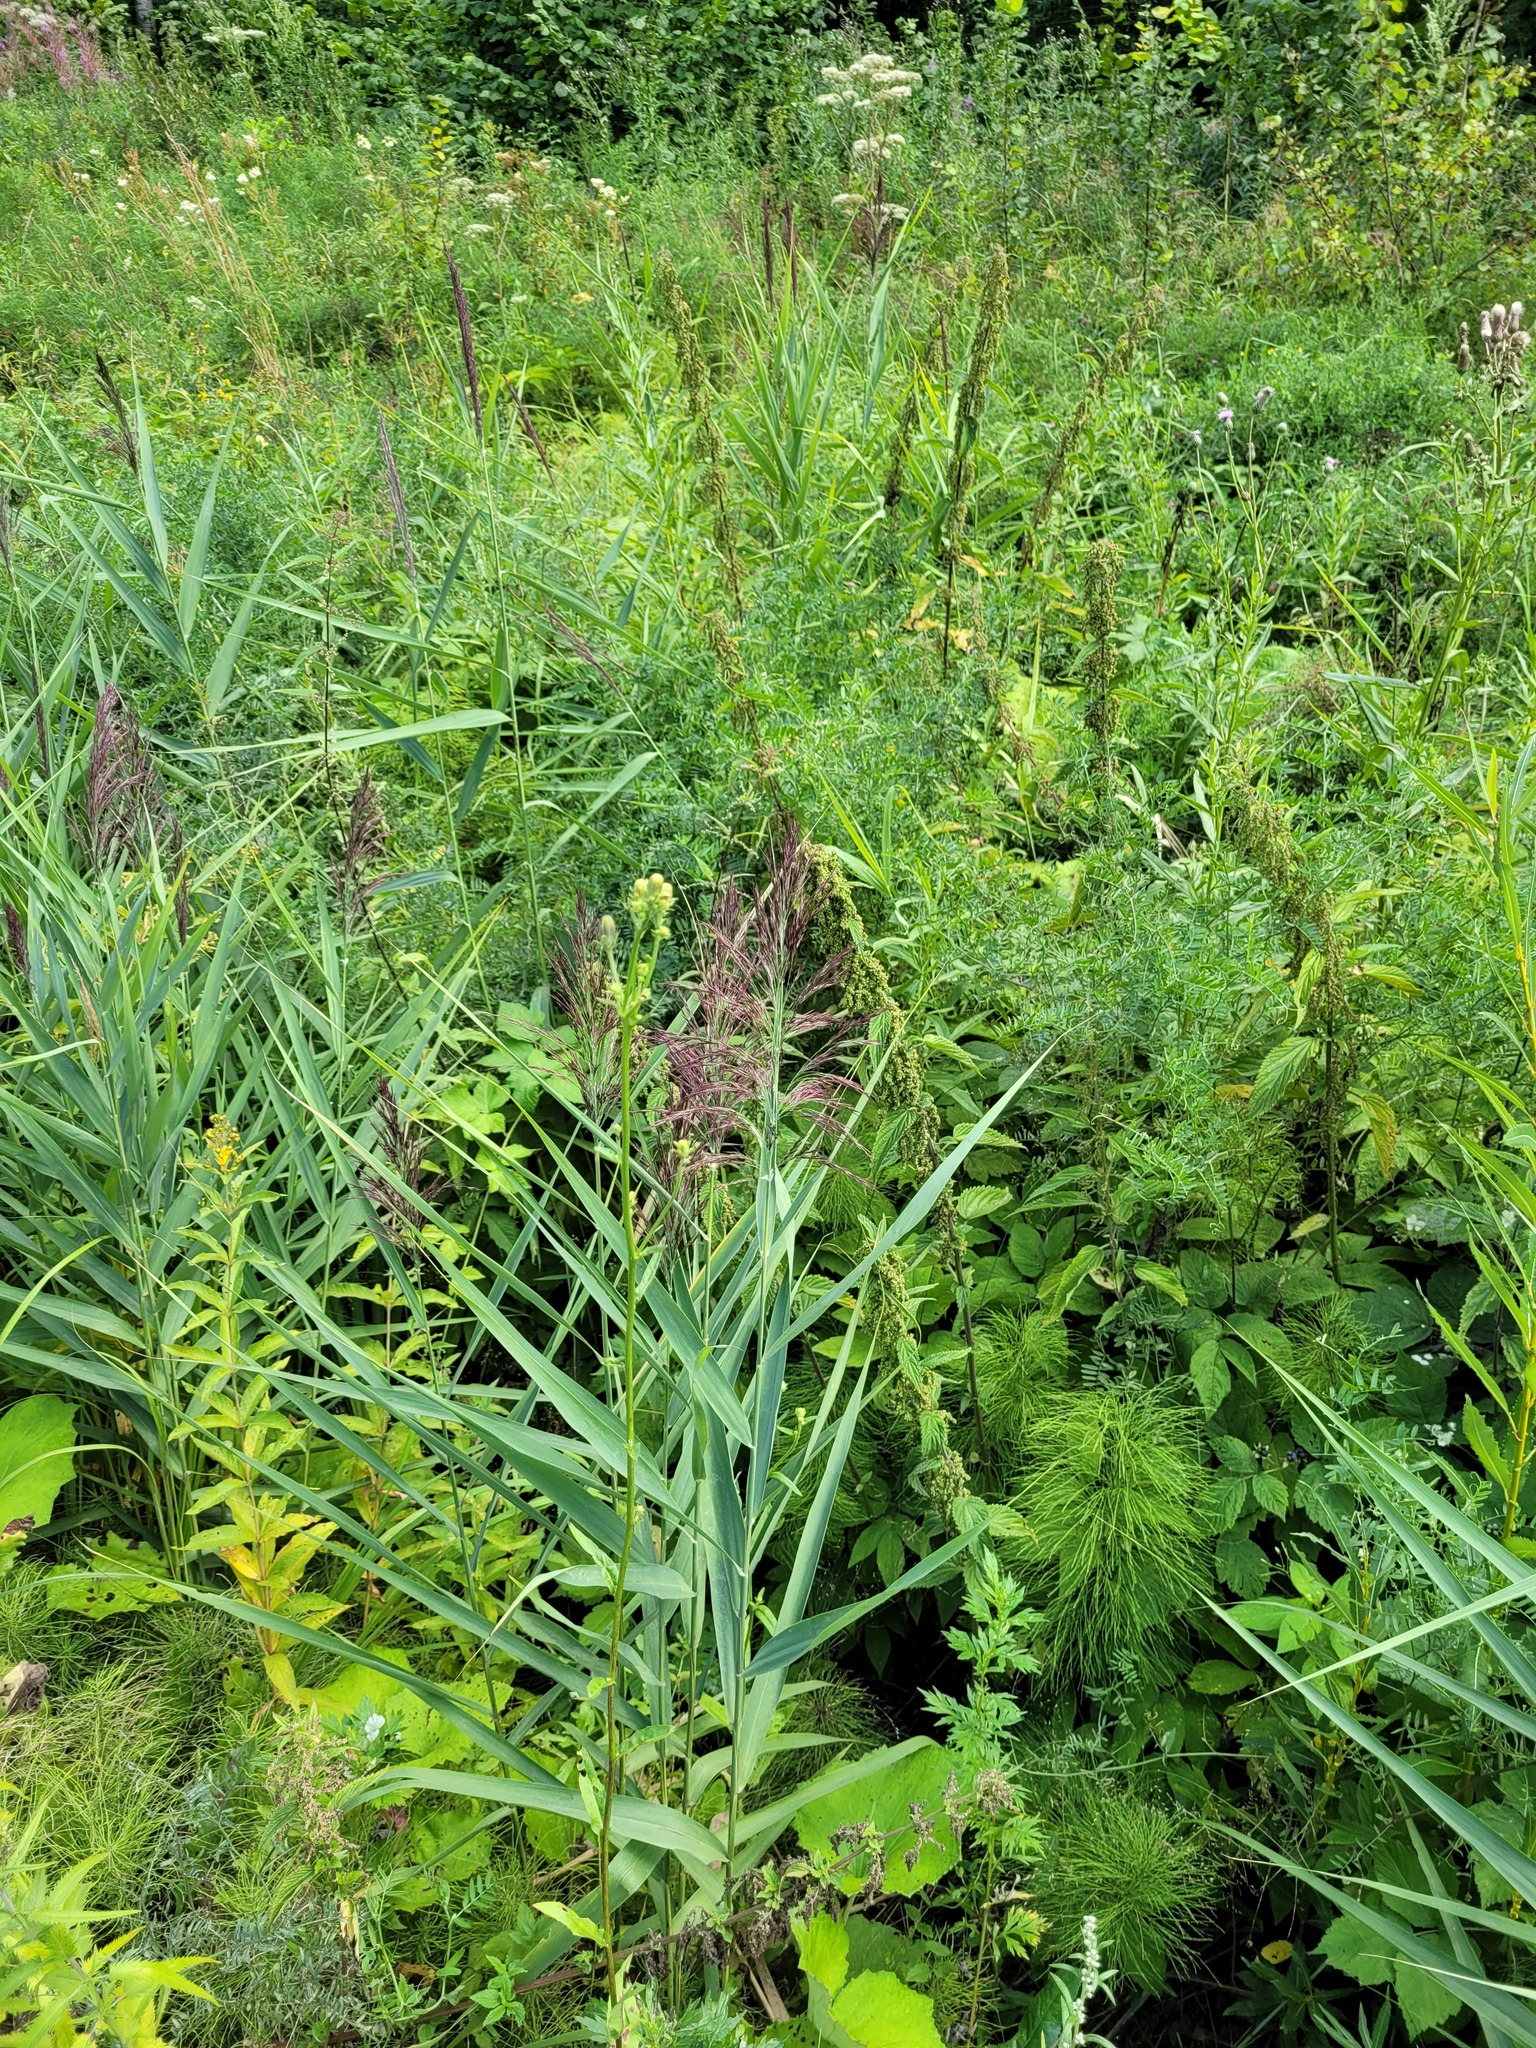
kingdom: Plantae
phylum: Tracheophyta
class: Liliopsida
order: Poales
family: Poaceae
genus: Phragmites
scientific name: Phragmites australis
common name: Common reed
